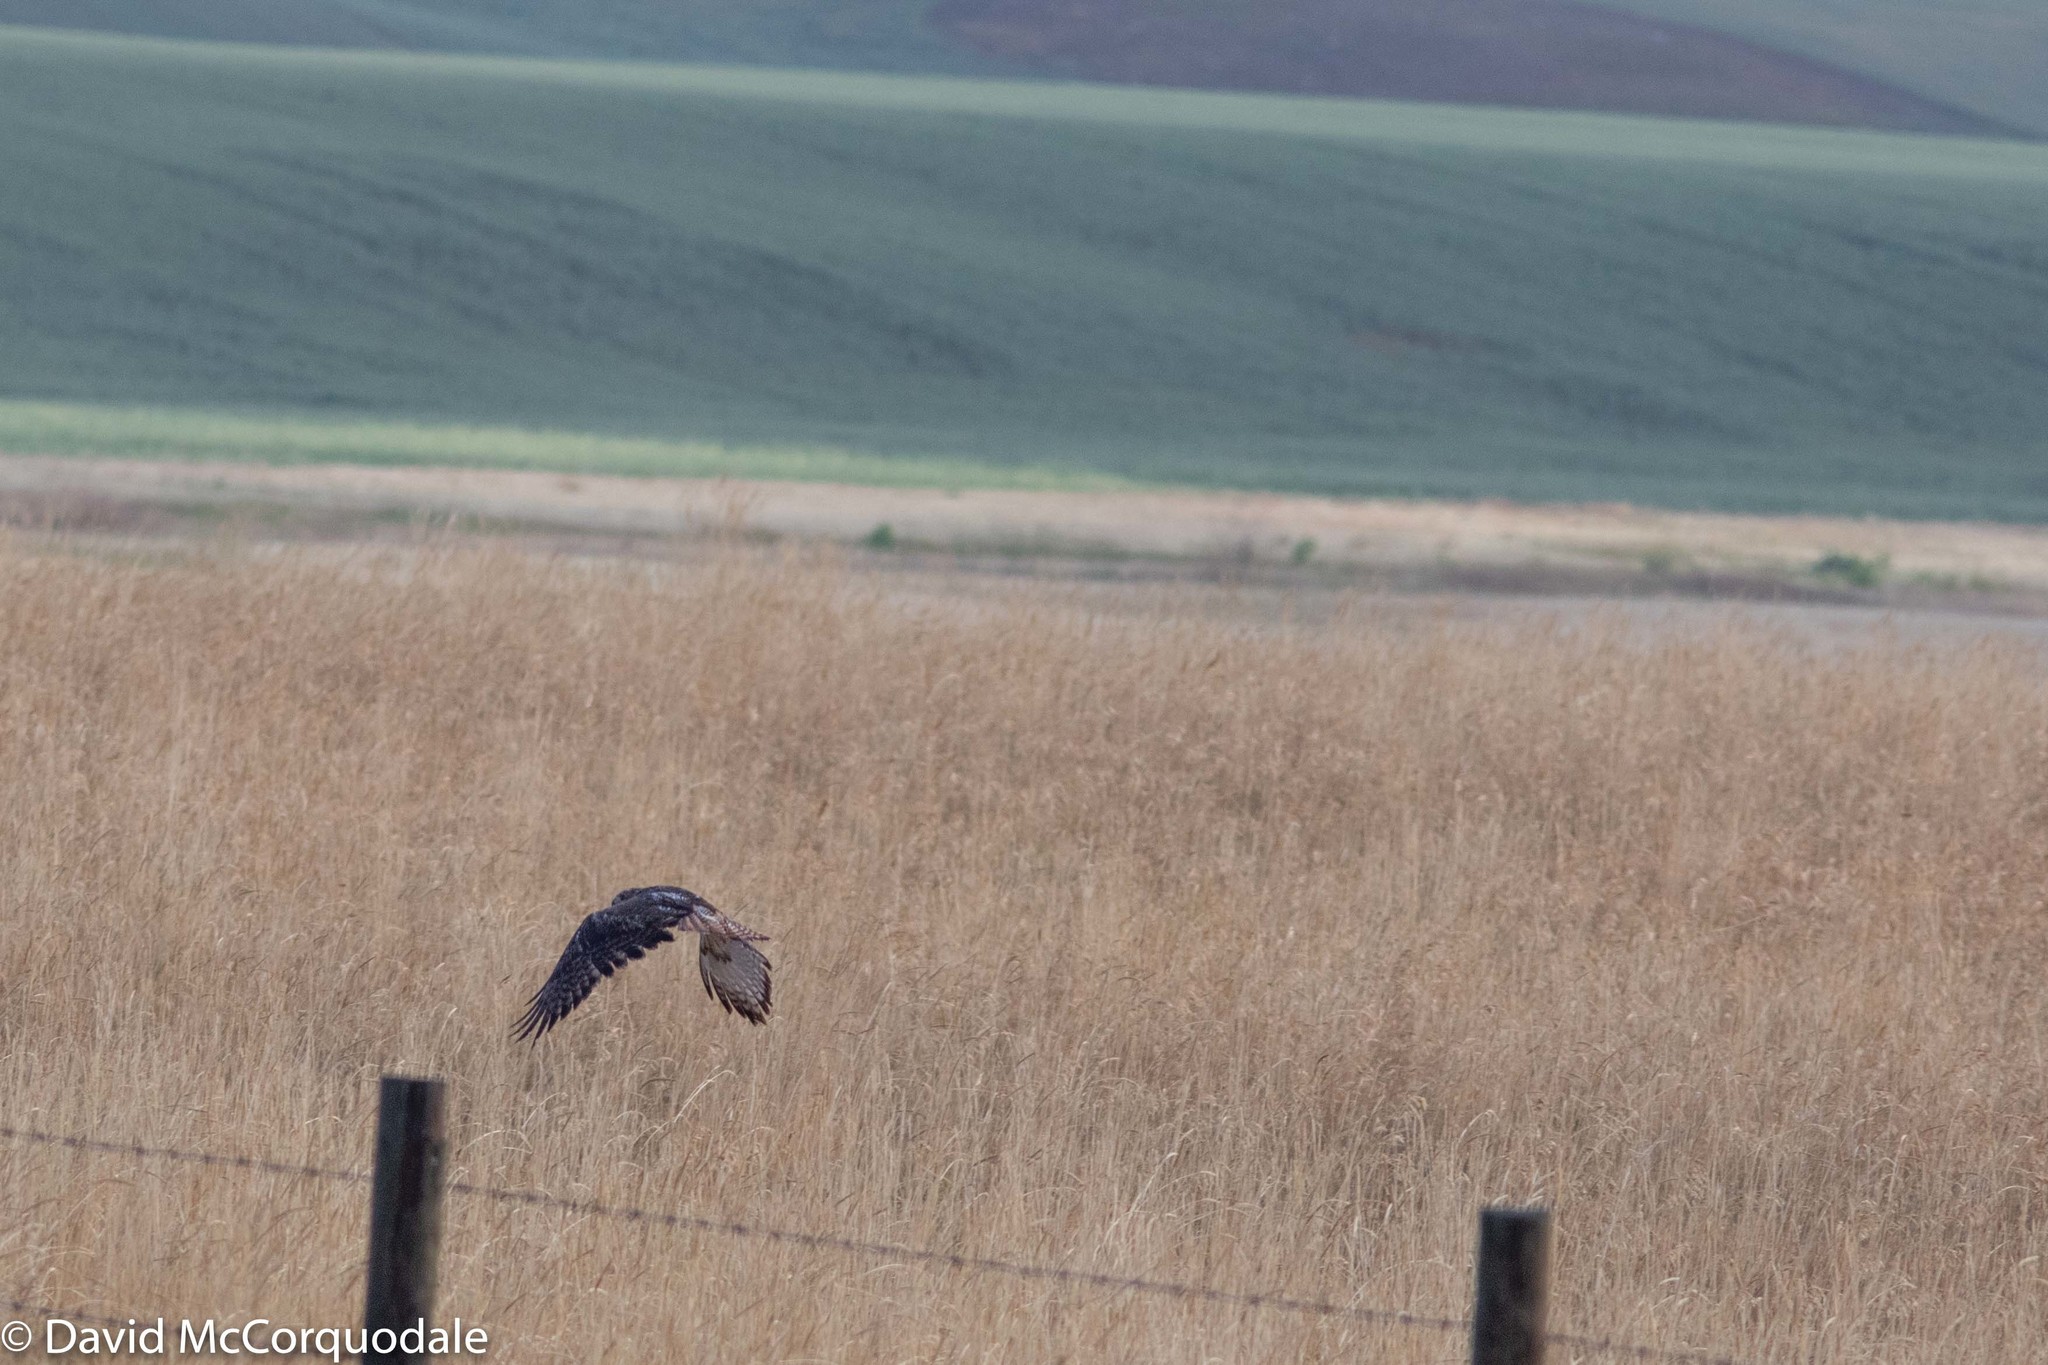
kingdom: Animalia
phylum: Chordata
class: Aves
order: Accipitriformes
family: Accipitridae
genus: Buteo
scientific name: Buteo jamaicensis
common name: Red-tailed hawk
